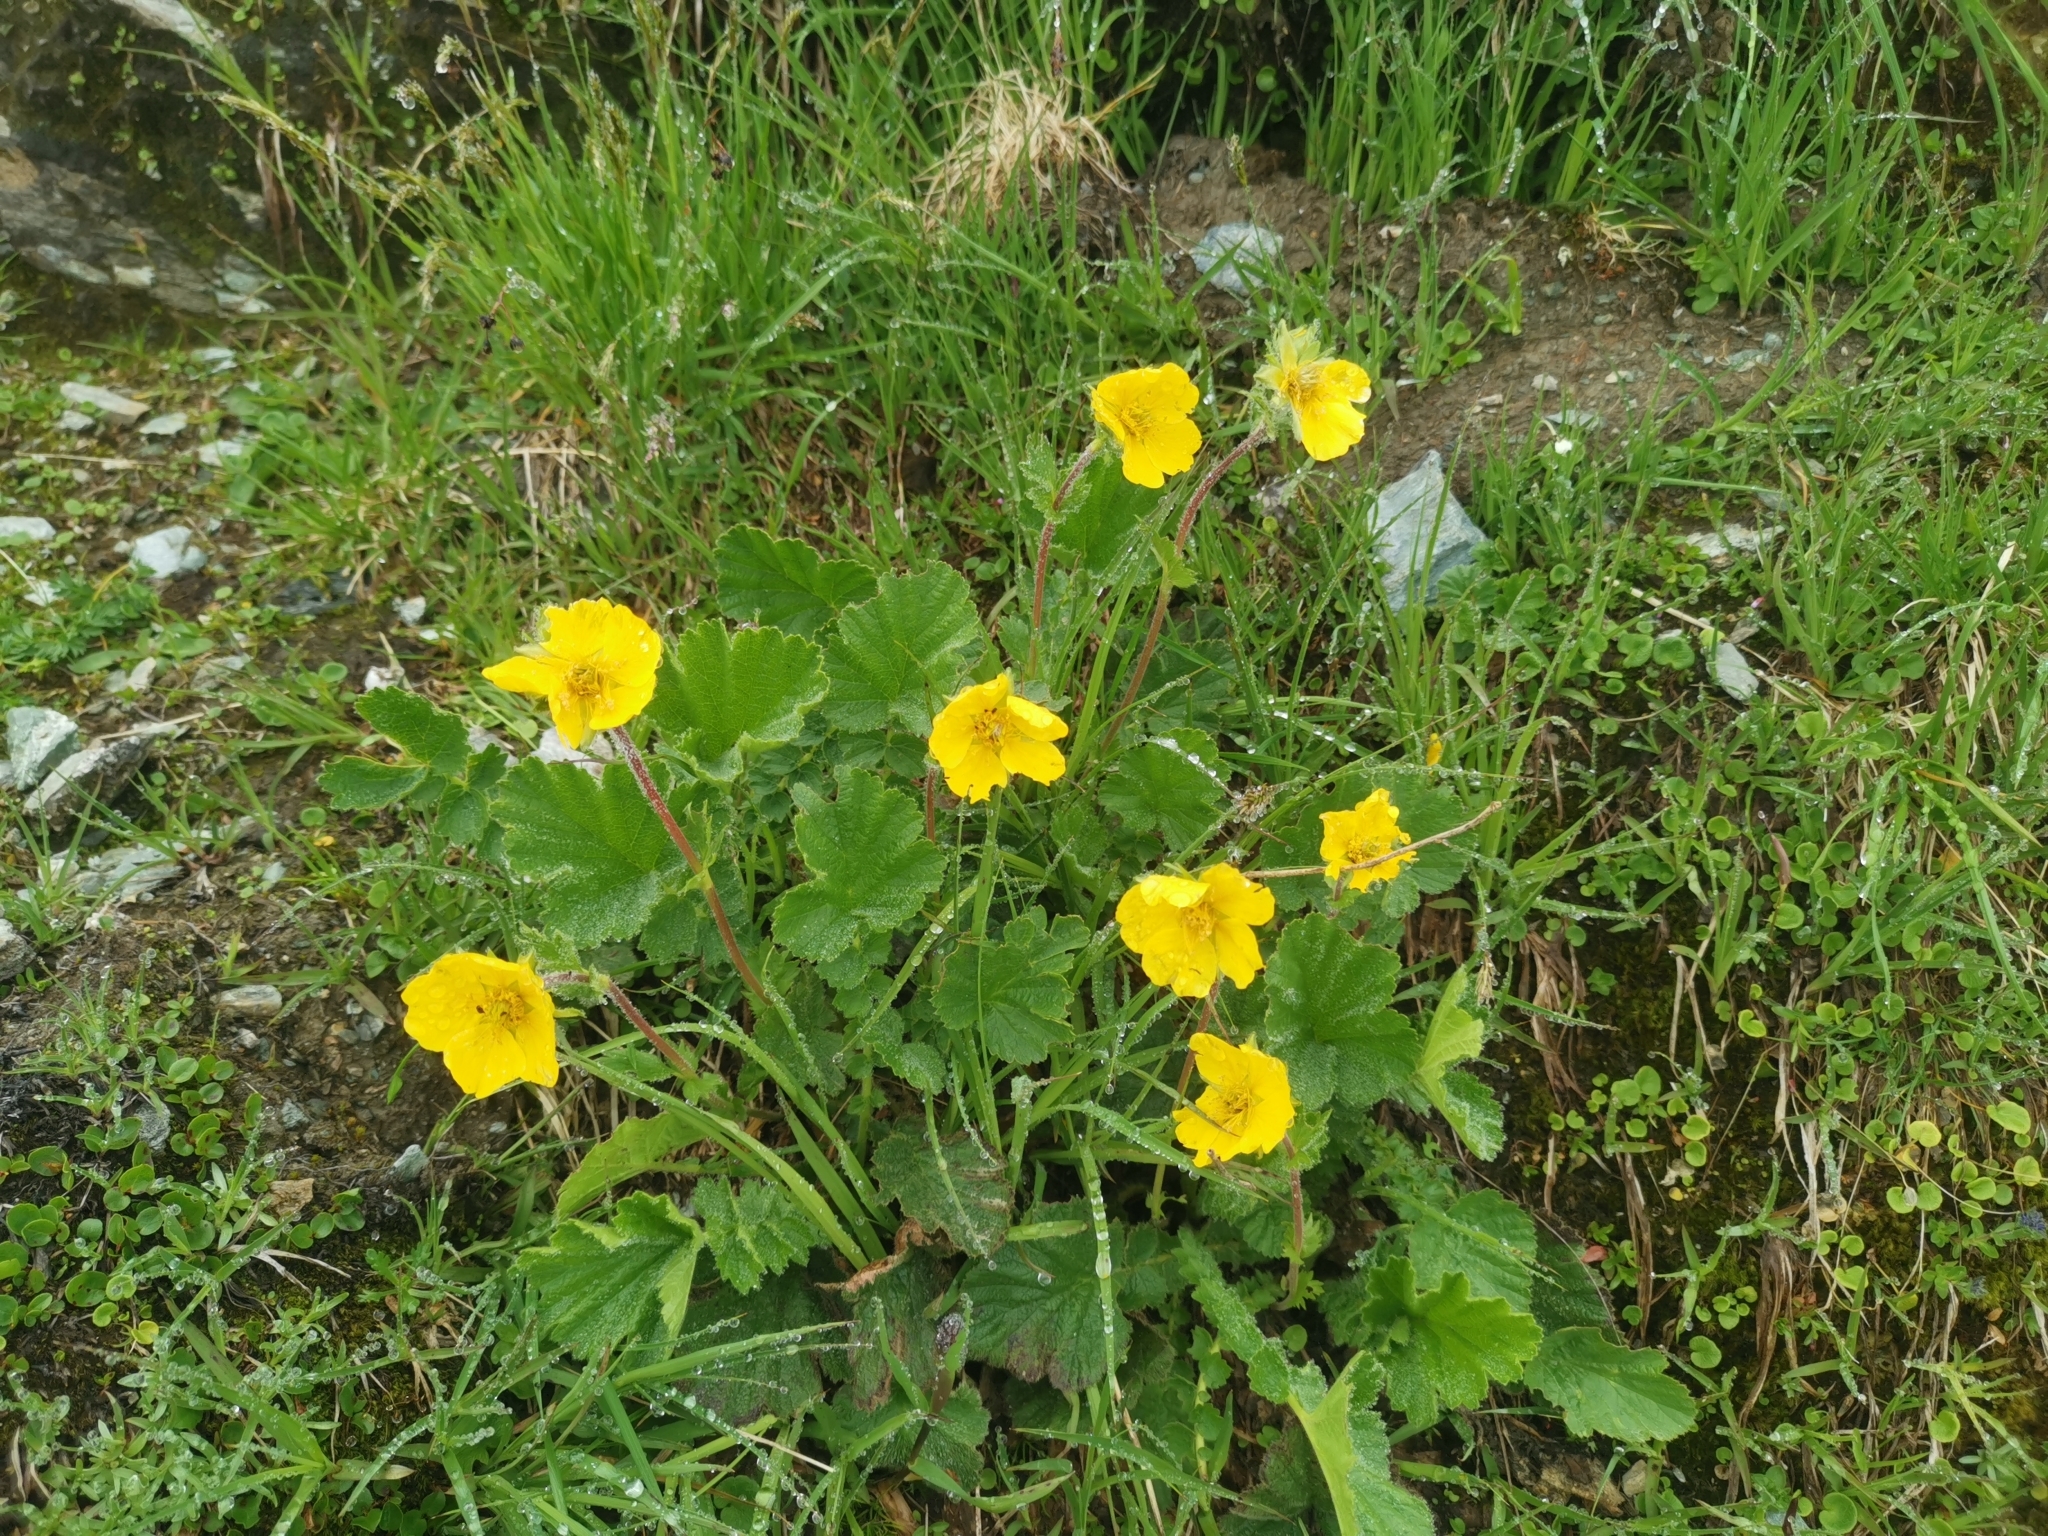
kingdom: Plantae
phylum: Tracheophyta
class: Magnoliopsida
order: Rosales
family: Rosaceae
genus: Geum
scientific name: Geum montanum
